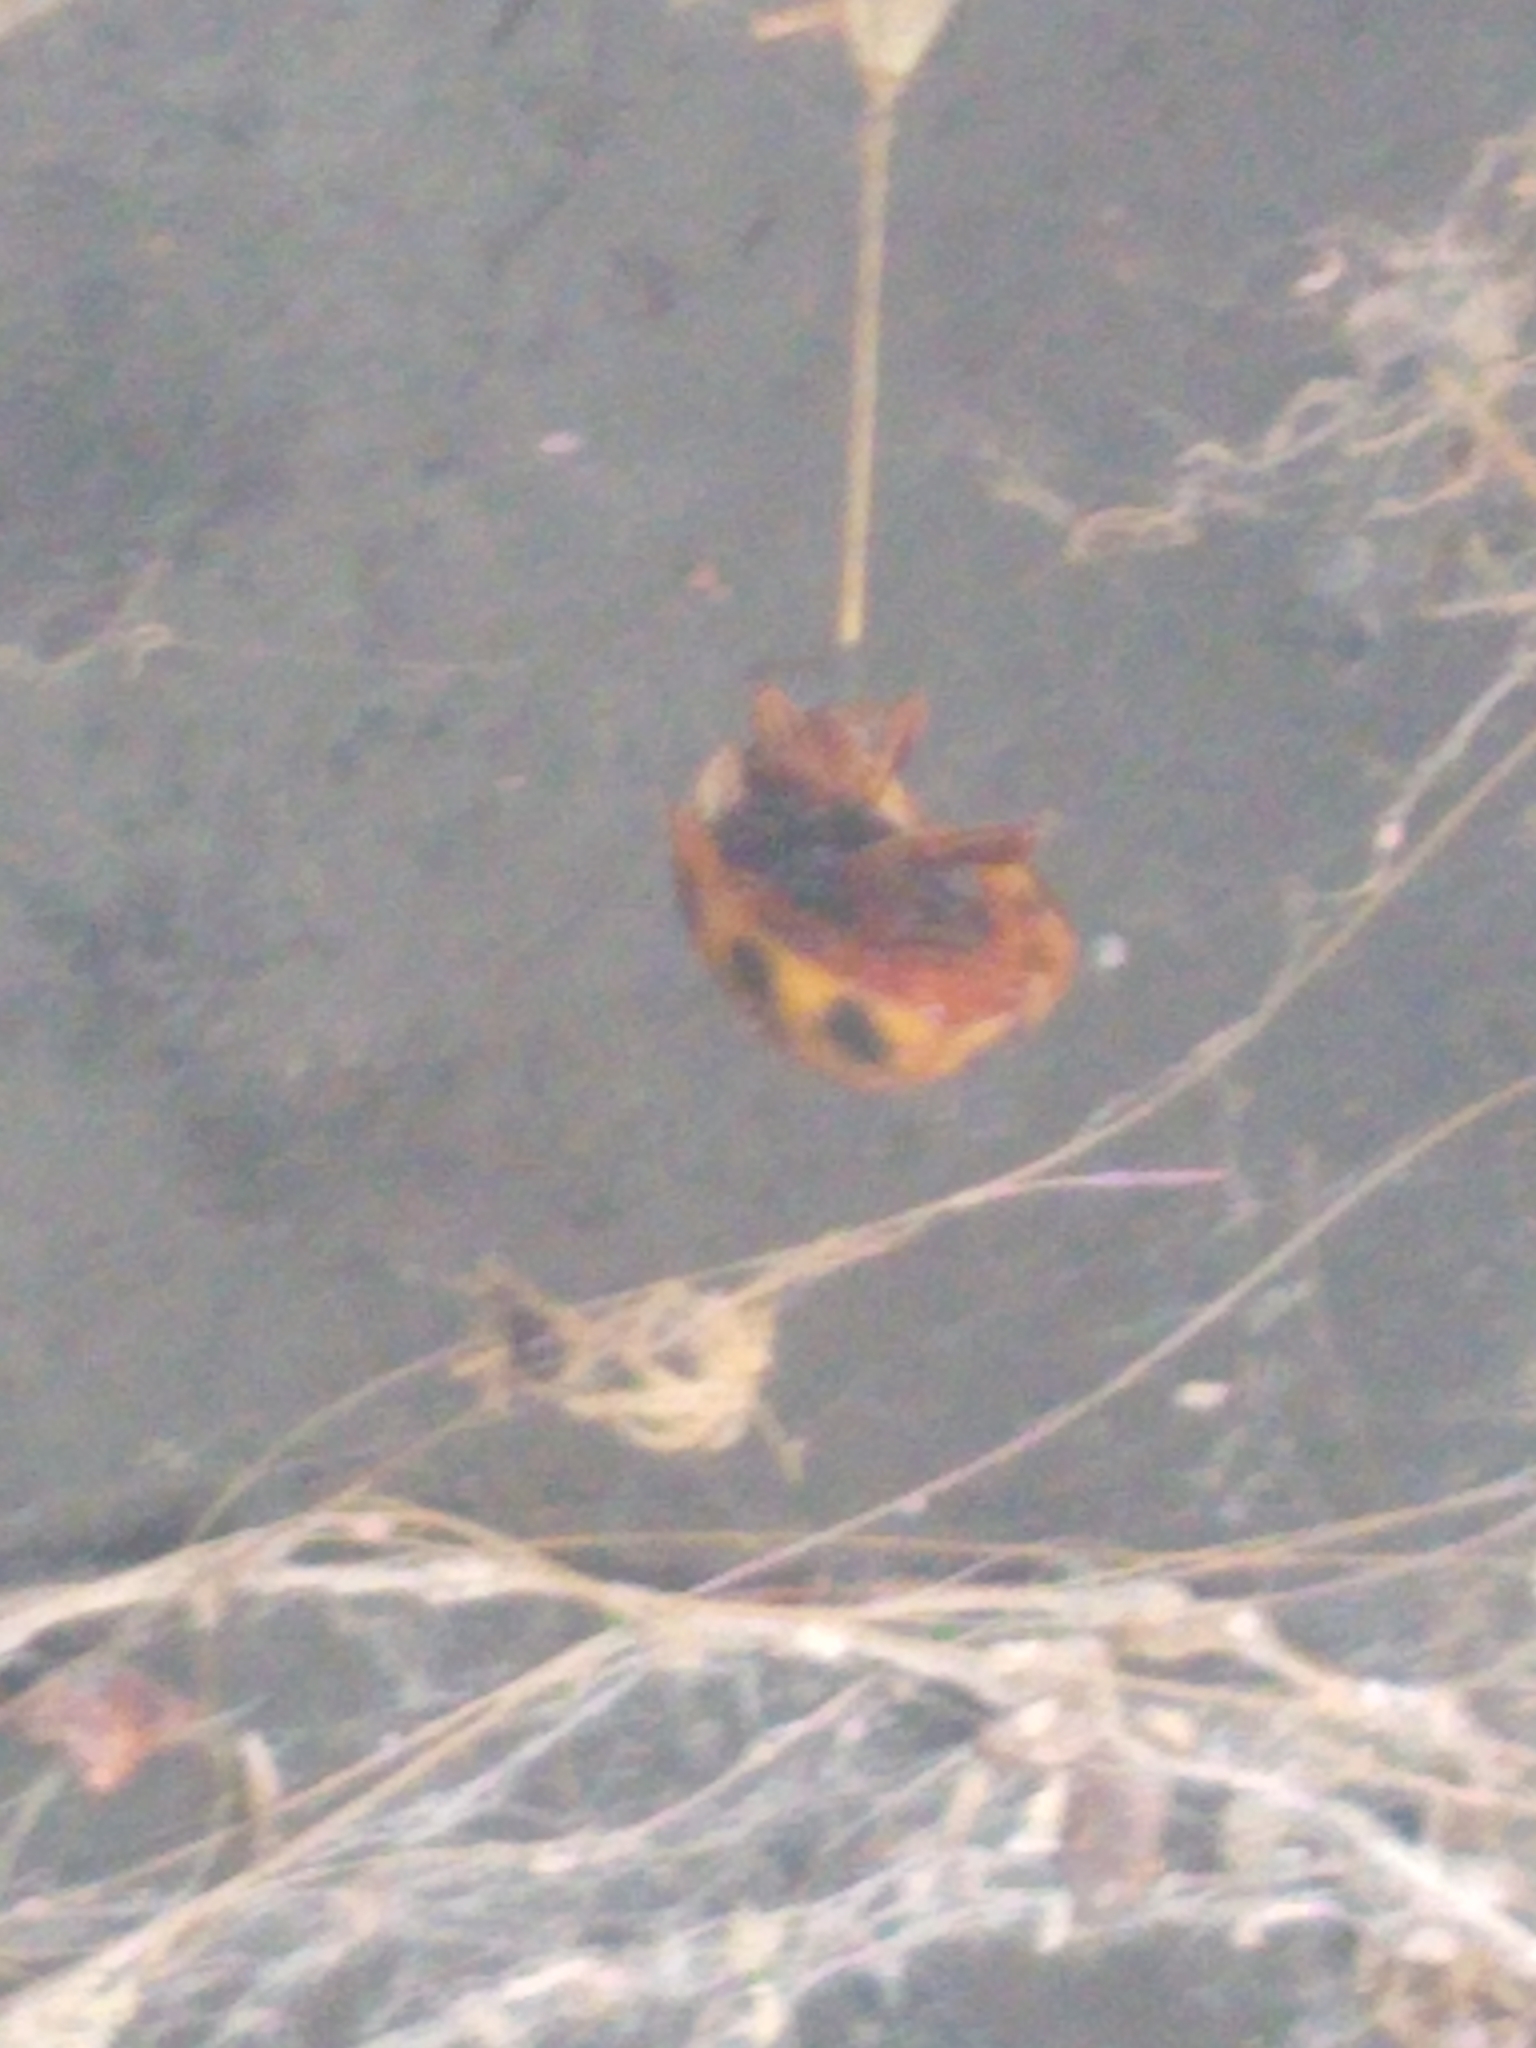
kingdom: Animalia
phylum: Arthropoda
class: Insecta
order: Coleoptera
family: Coccinellidae
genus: Harmonia
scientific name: Harmonia axyridis
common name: Harlequin ladybird
